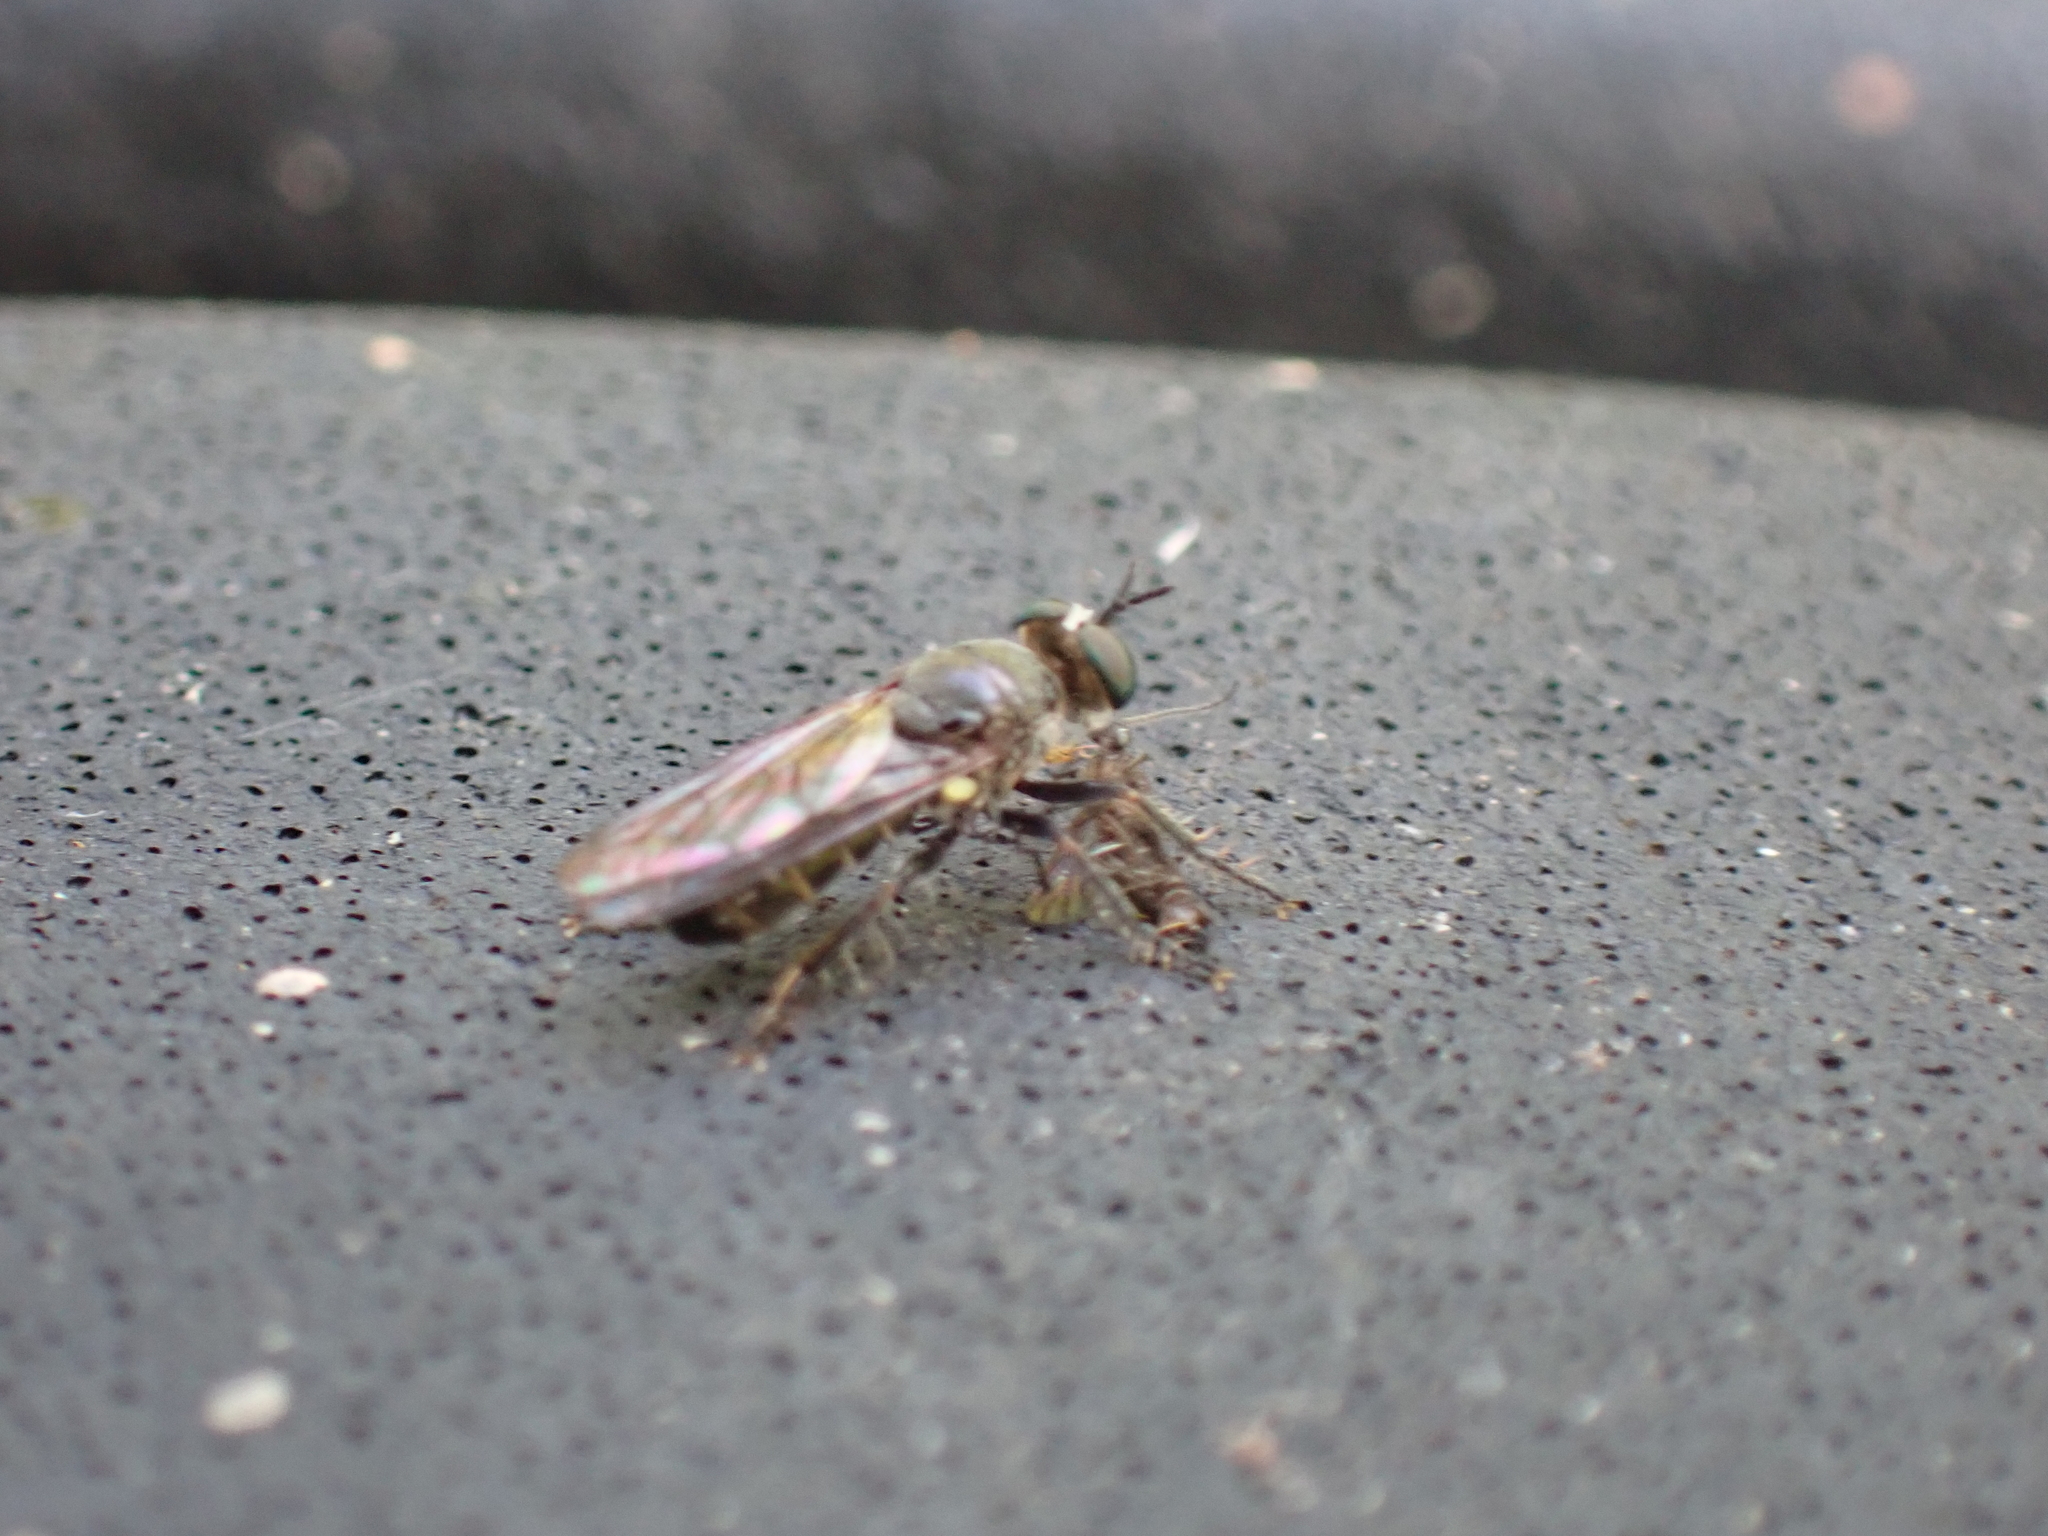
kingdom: Animalia
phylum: Arthropoda
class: Insecta
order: Diptera
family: Asilidae
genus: Atomosia
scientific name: Atomosia puella
